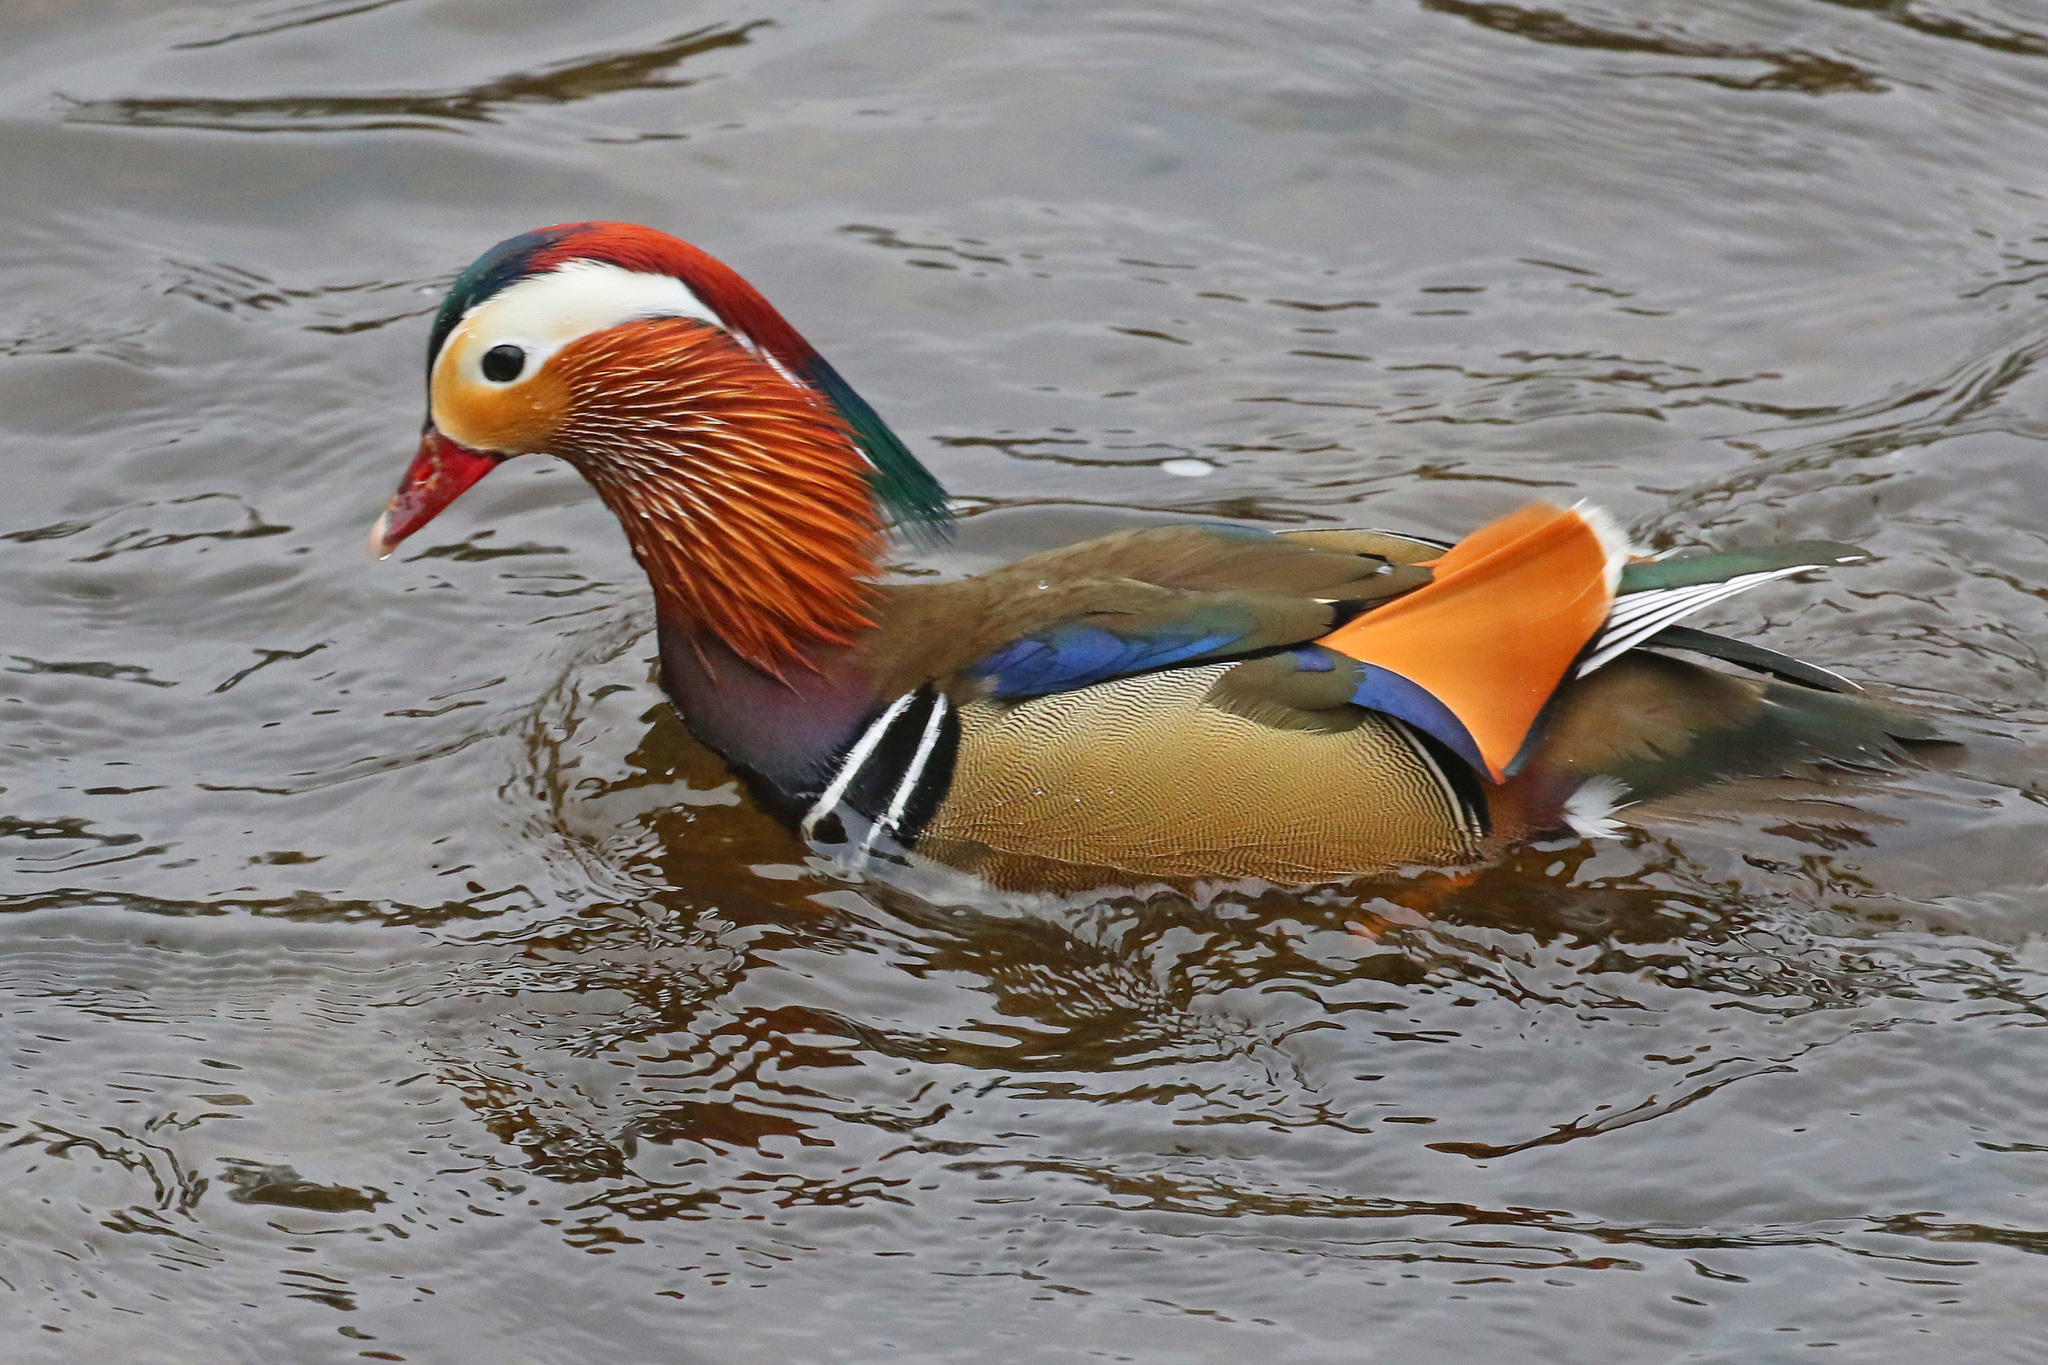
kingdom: Animalia
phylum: Chordata
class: Aves
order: Anseriformes
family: Anatidae
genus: Aix
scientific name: Aix galericulata
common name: Mandarin duck
